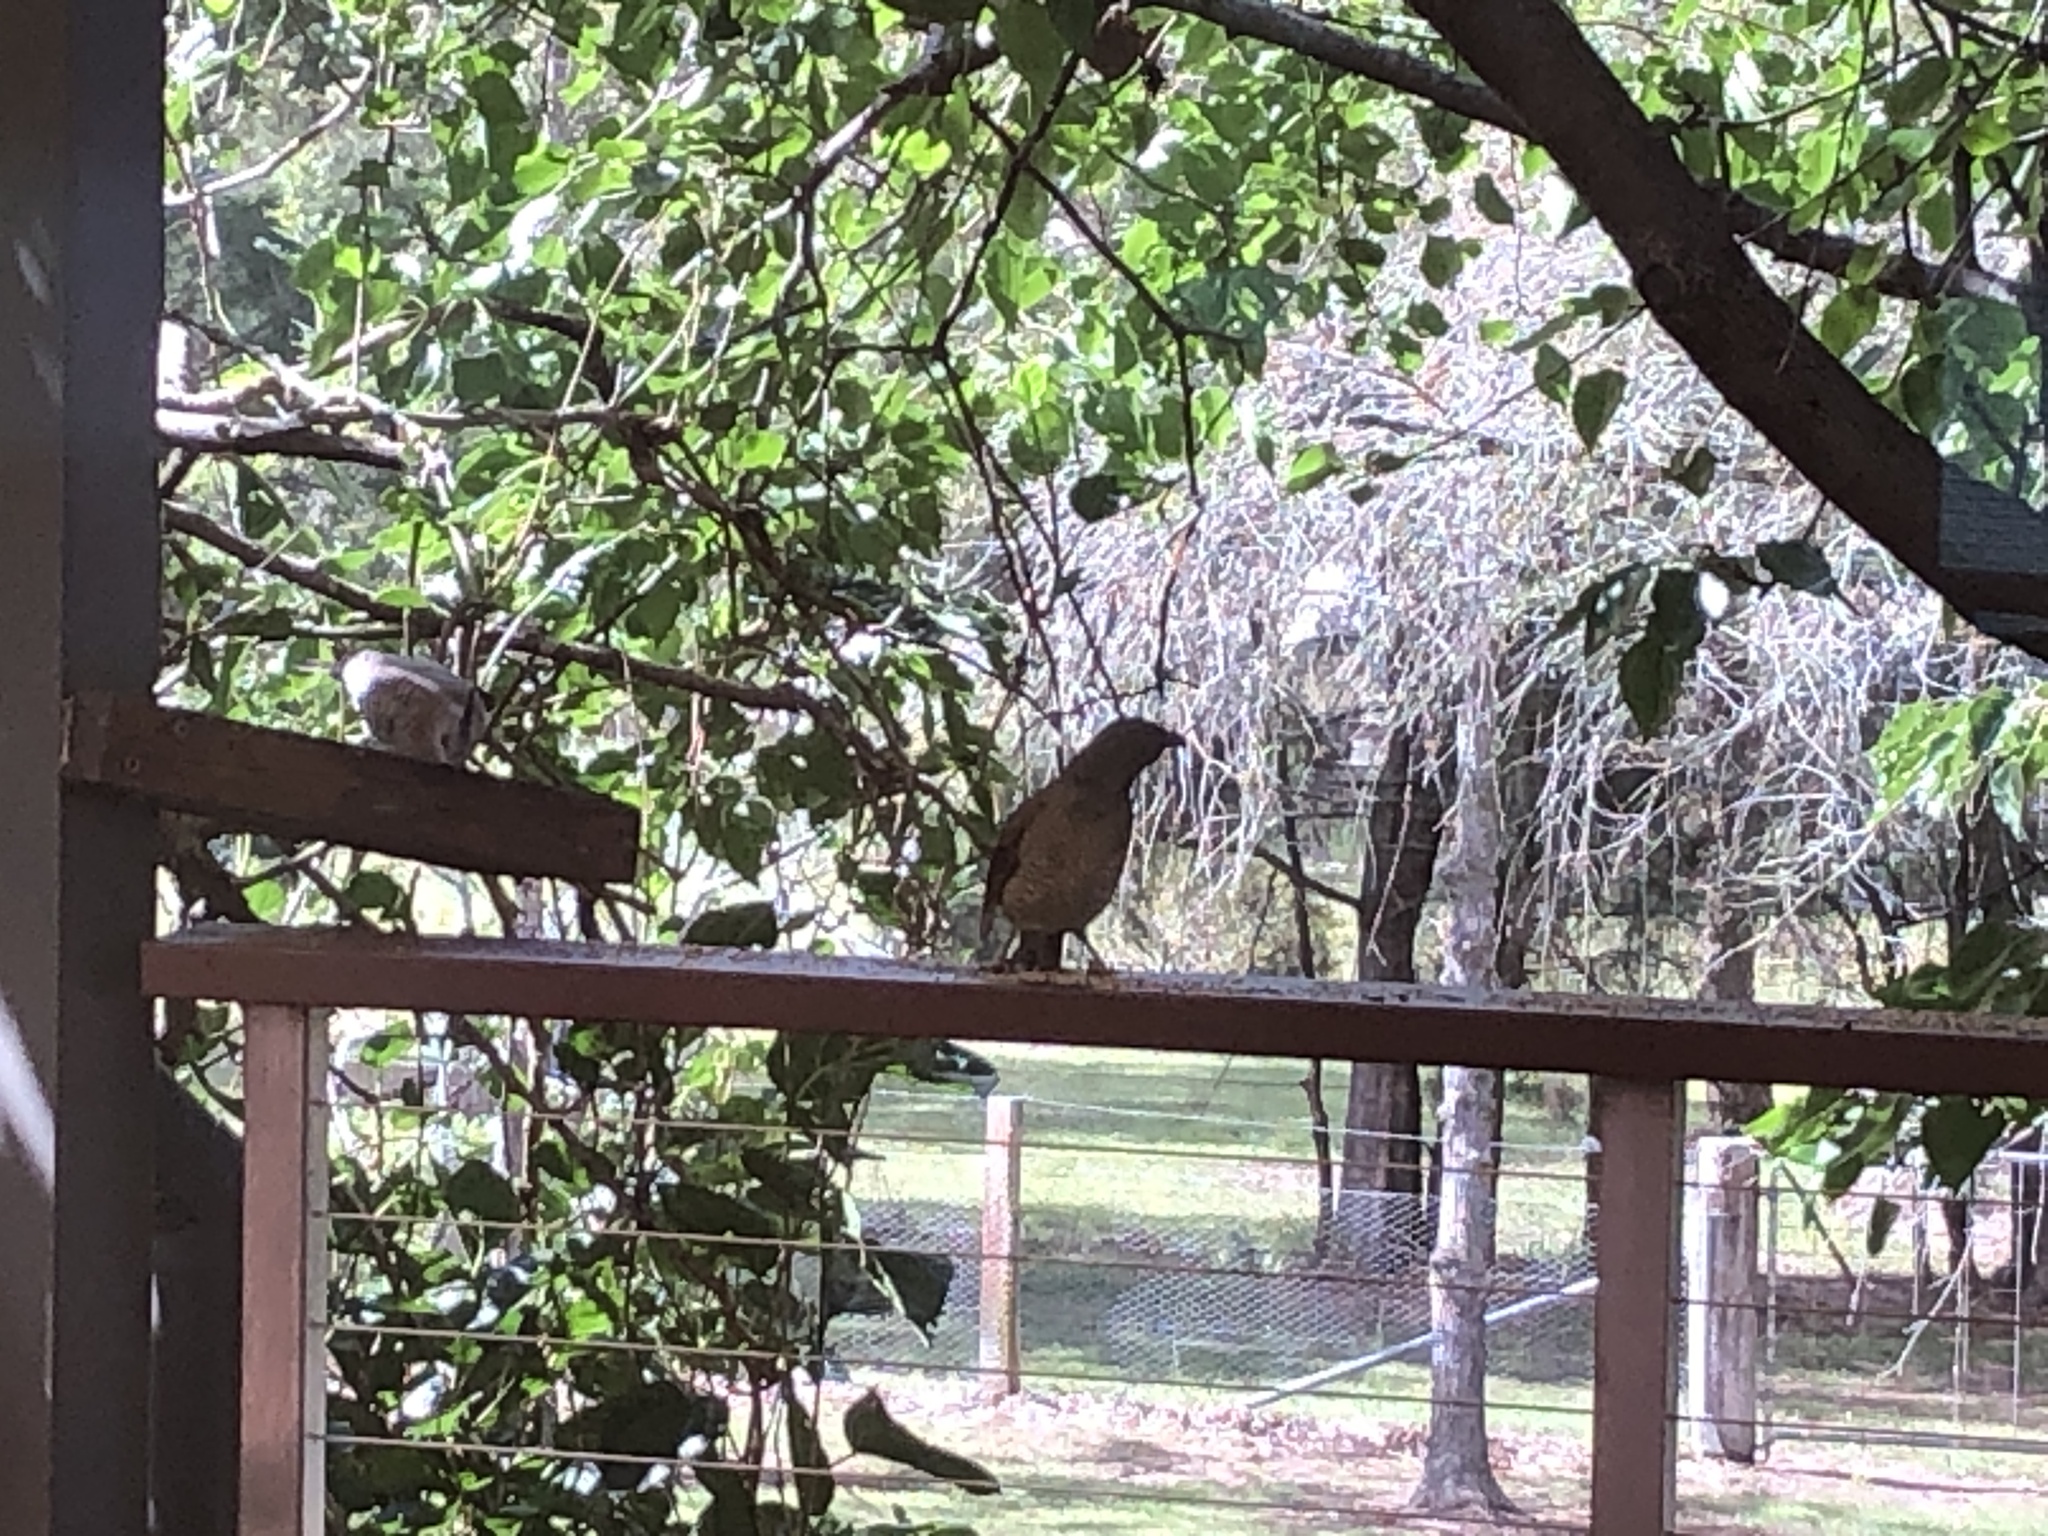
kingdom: Animalia
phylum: Chordata
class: Aves
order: Passeriformes
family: Ptilonorhynchidae
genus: Ptilonorhynchus
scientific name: Ptilonorhynchus violaceus
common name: Satin bowerbird
